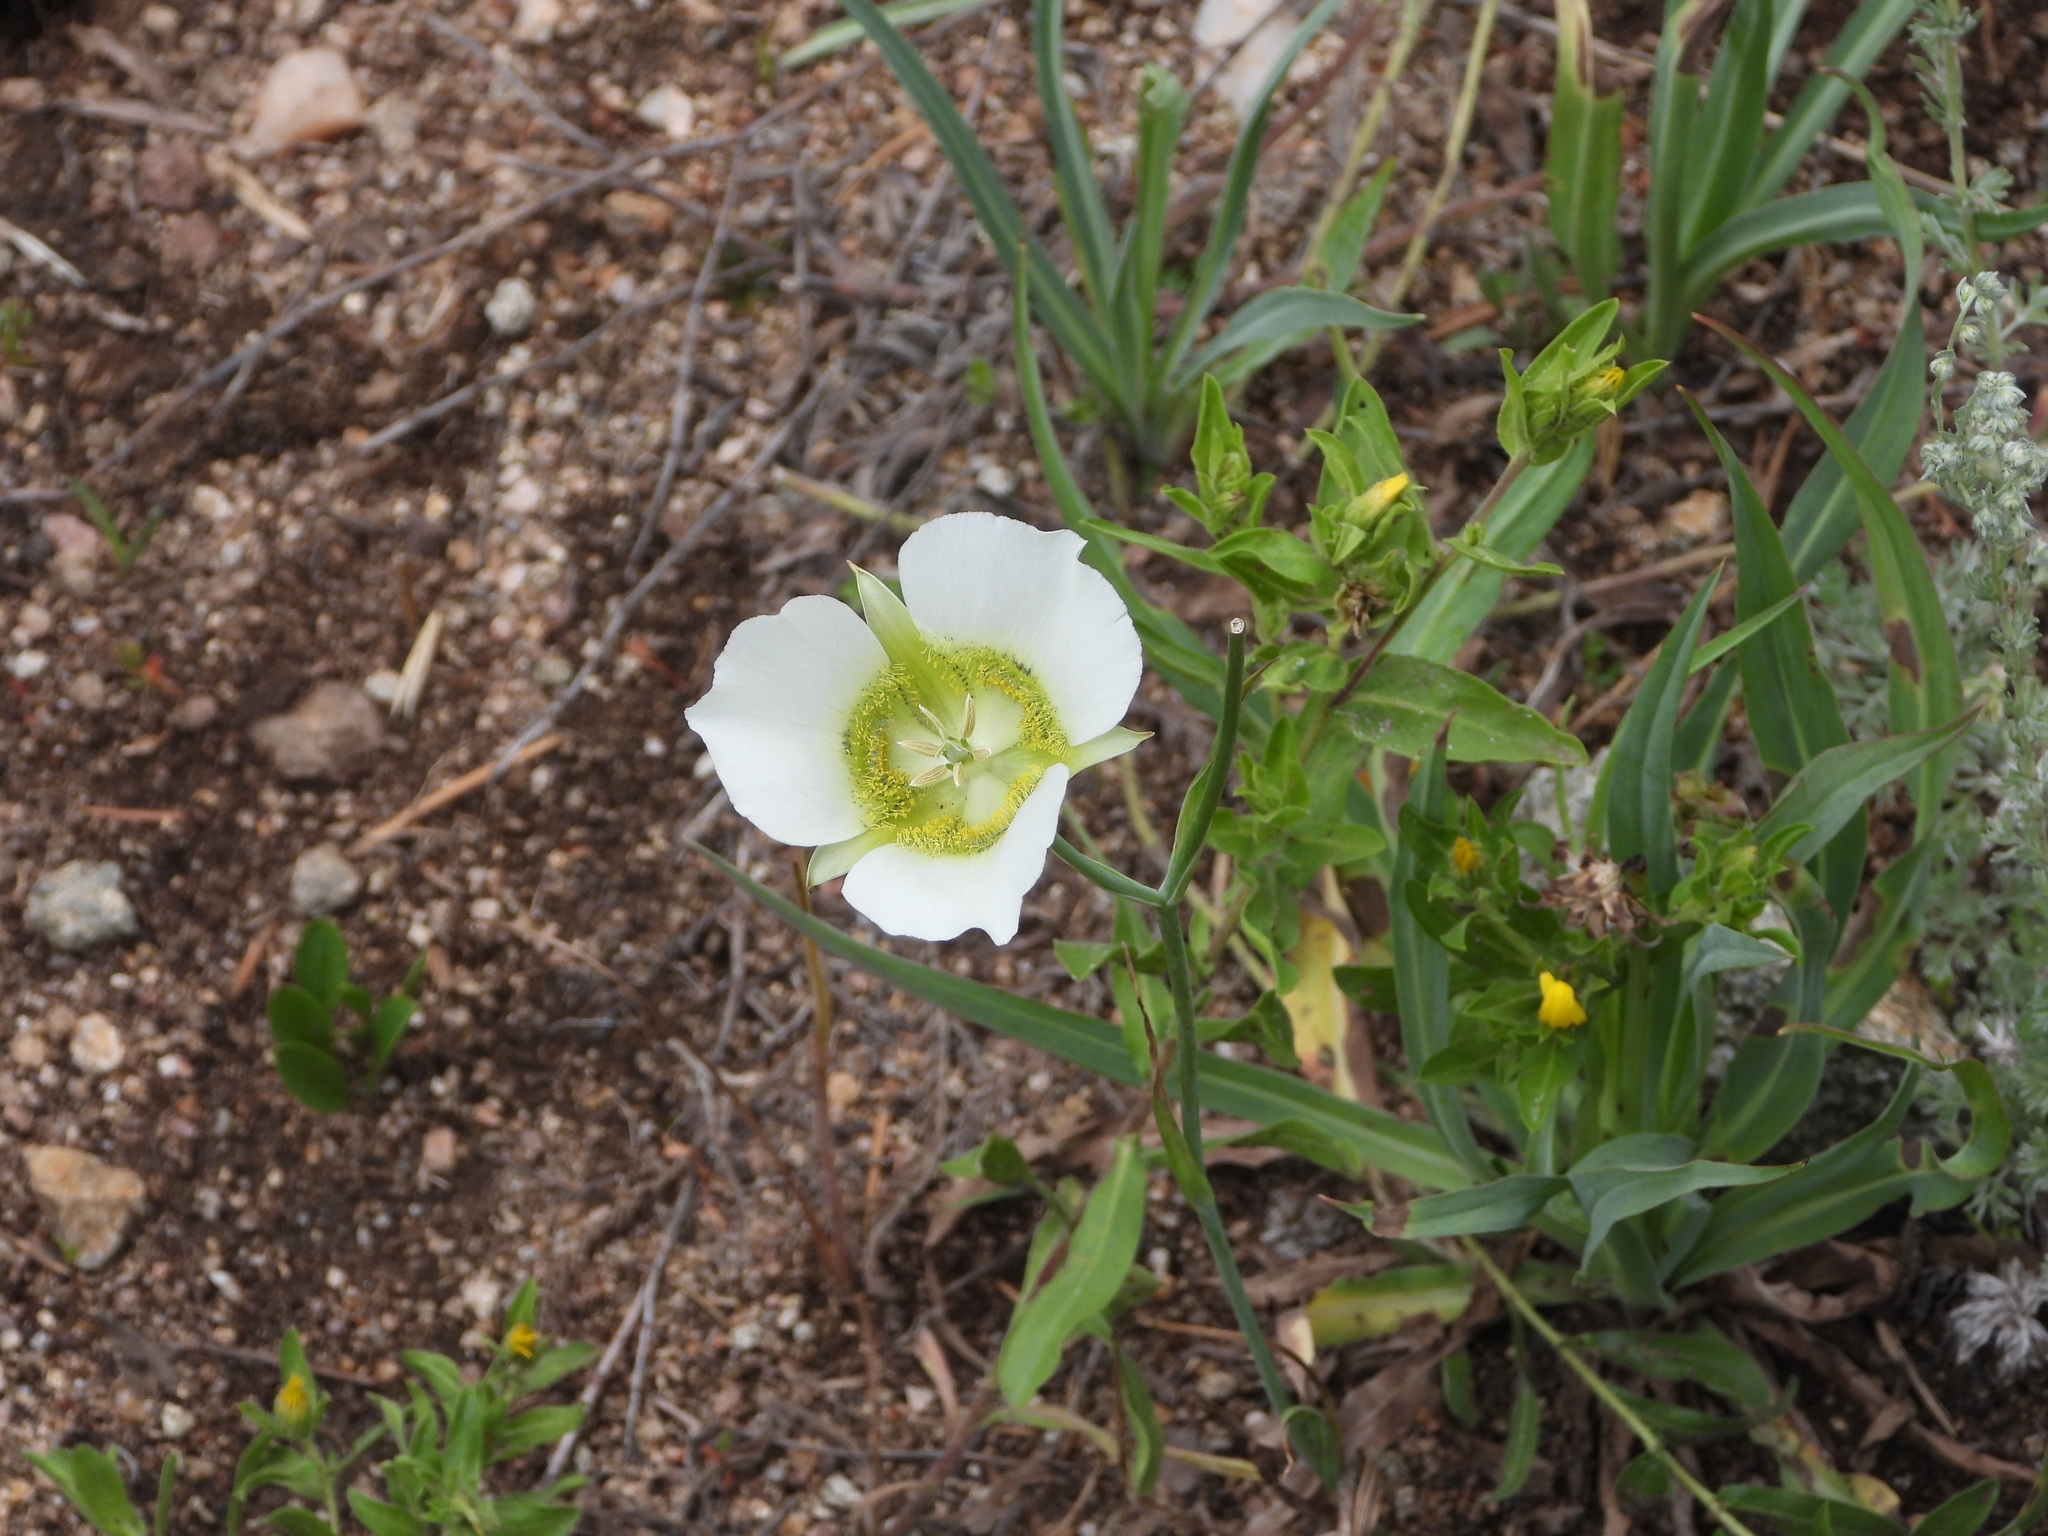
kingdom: Plantae
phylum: Tracheophyta
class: Liliopsida
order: Liliales
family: Liliaceae
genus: Calochortus
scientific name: Calochortus gunnisonii
